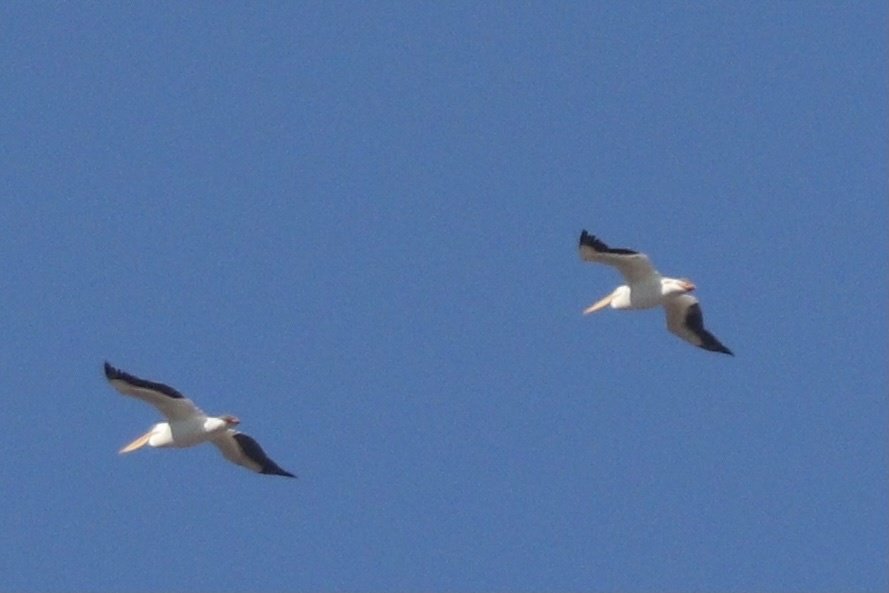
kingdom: Animalia
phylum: Chordata
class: Aves
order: Pelecaniformes
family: Pelecanidae
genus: Pelecanus
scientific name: Pelecanus erythrorhynchos
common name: American white pelican
